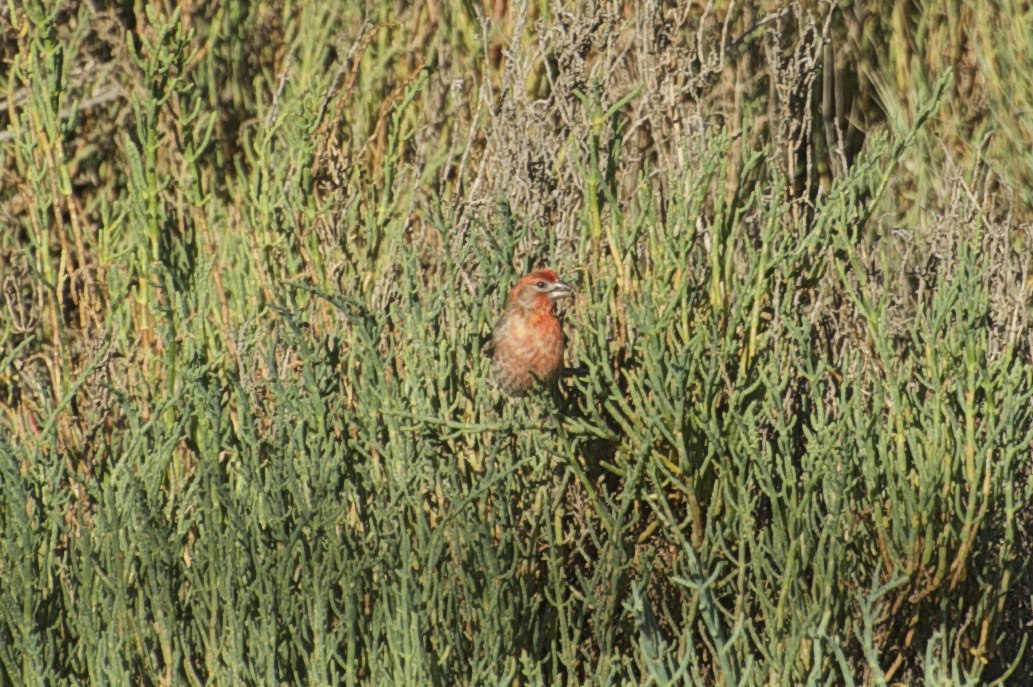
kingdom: Animalia
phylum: Chordata
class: Aves
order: Passeriformes
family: Fringillidae
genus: Haemorhous
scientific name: Haemorhous mexicanus
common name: House finch
